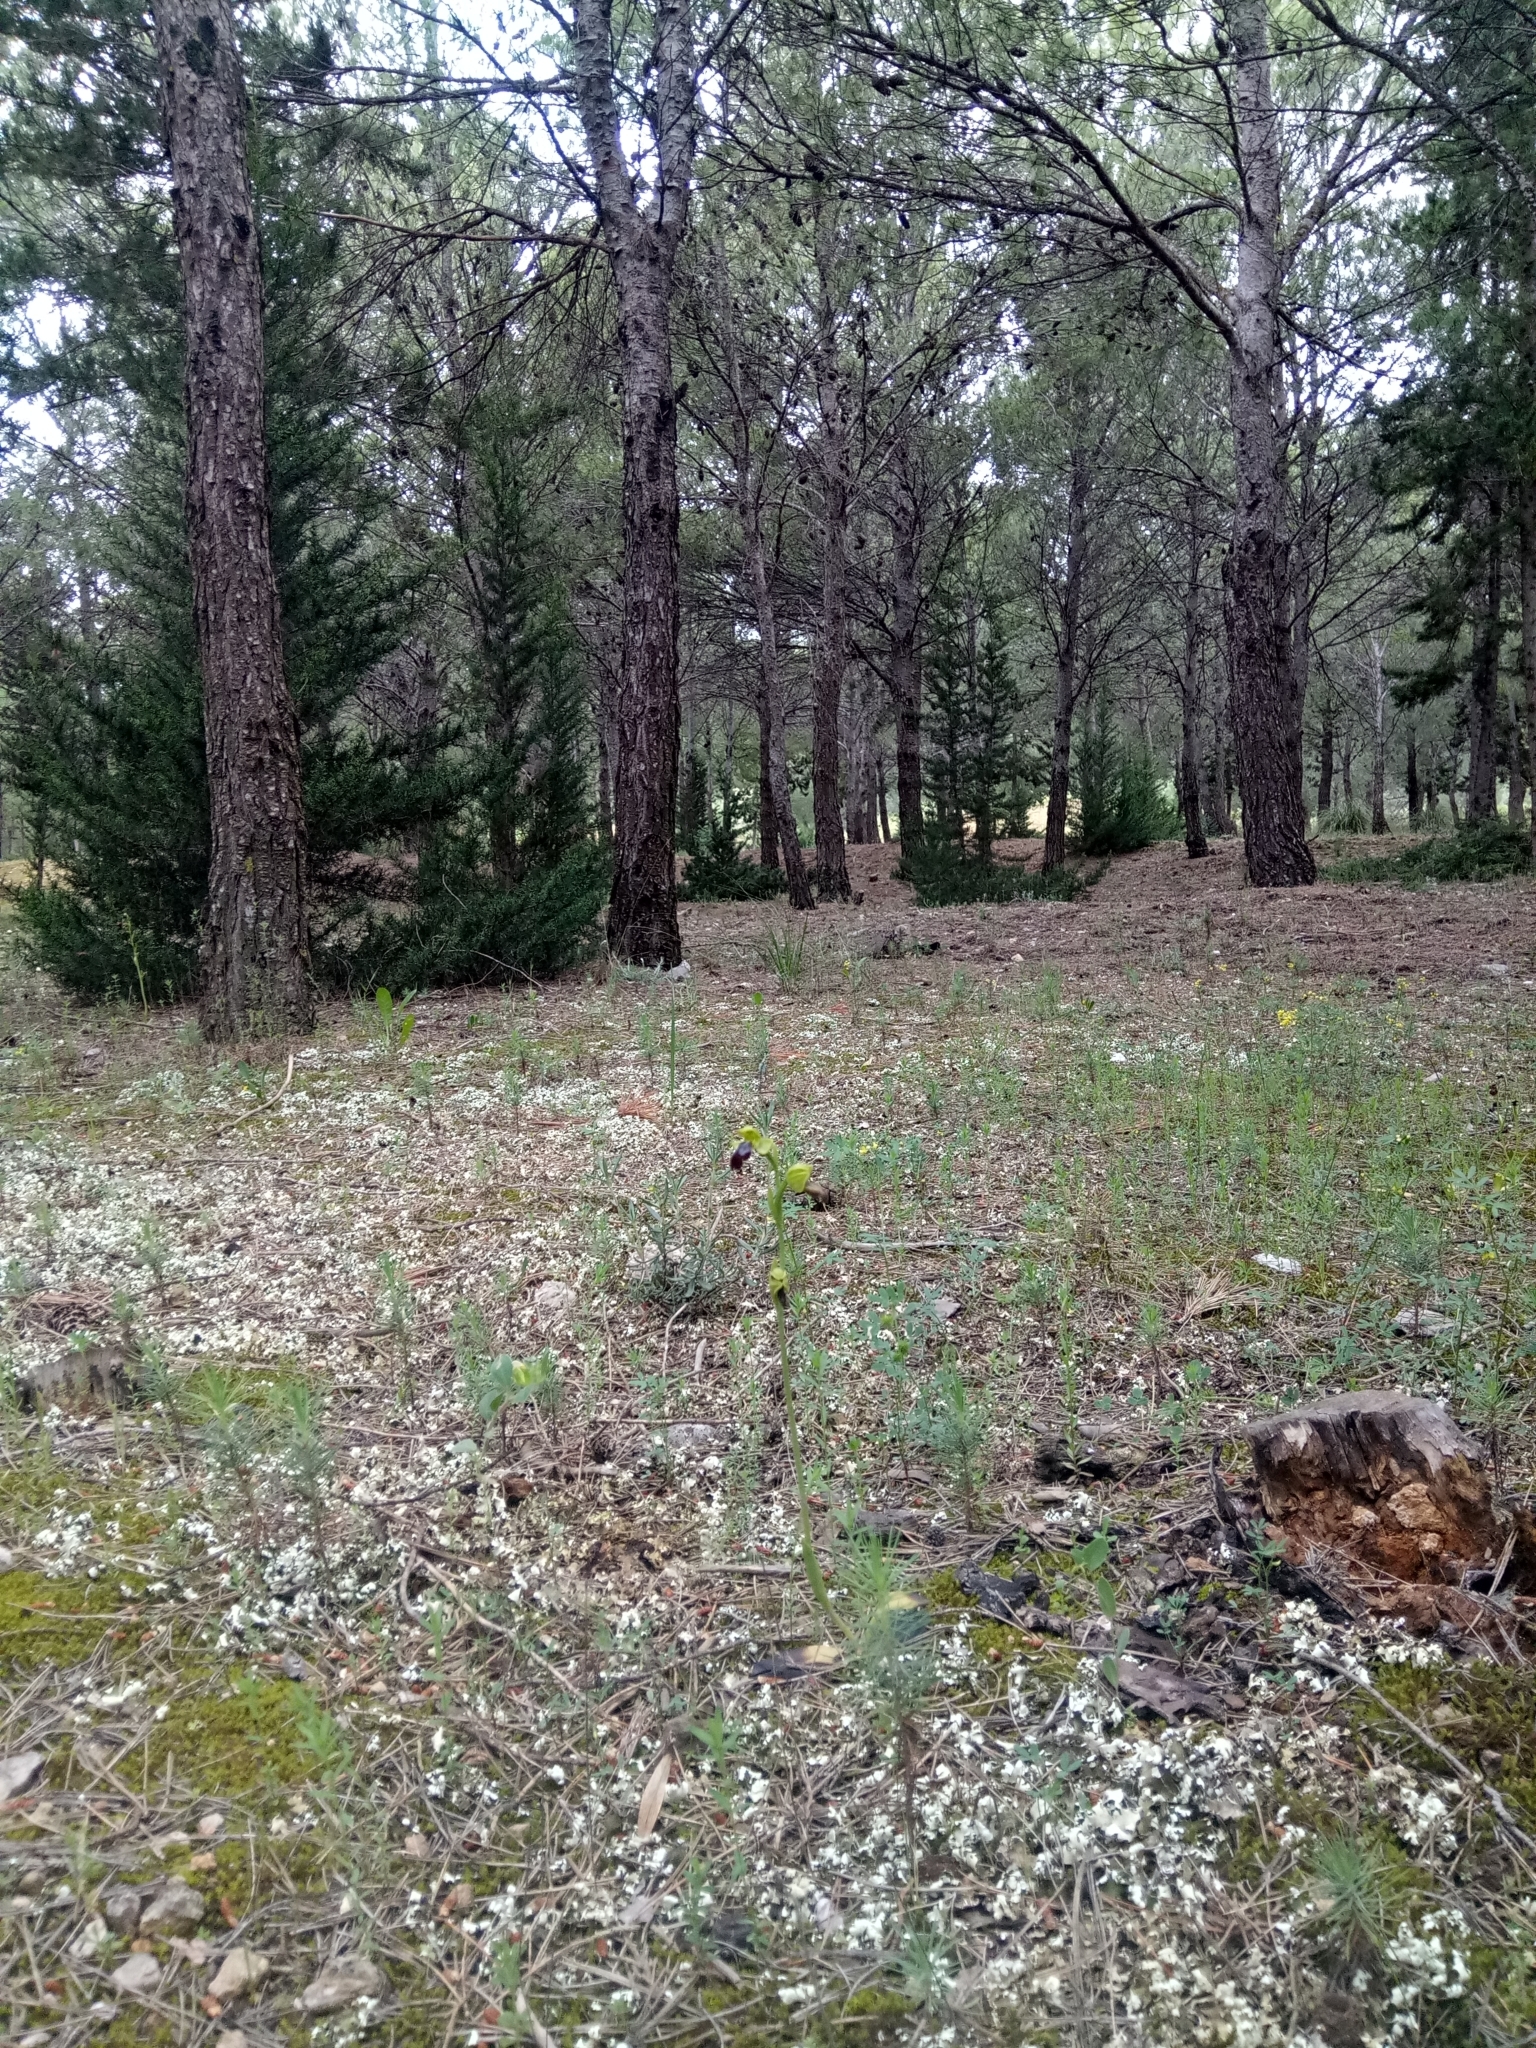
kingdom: Plantae
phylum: Tracheophyta
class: Liliopsida
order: Asparagales
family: Orchidaceae
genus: Ophrys
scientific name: Ophrys fusca
